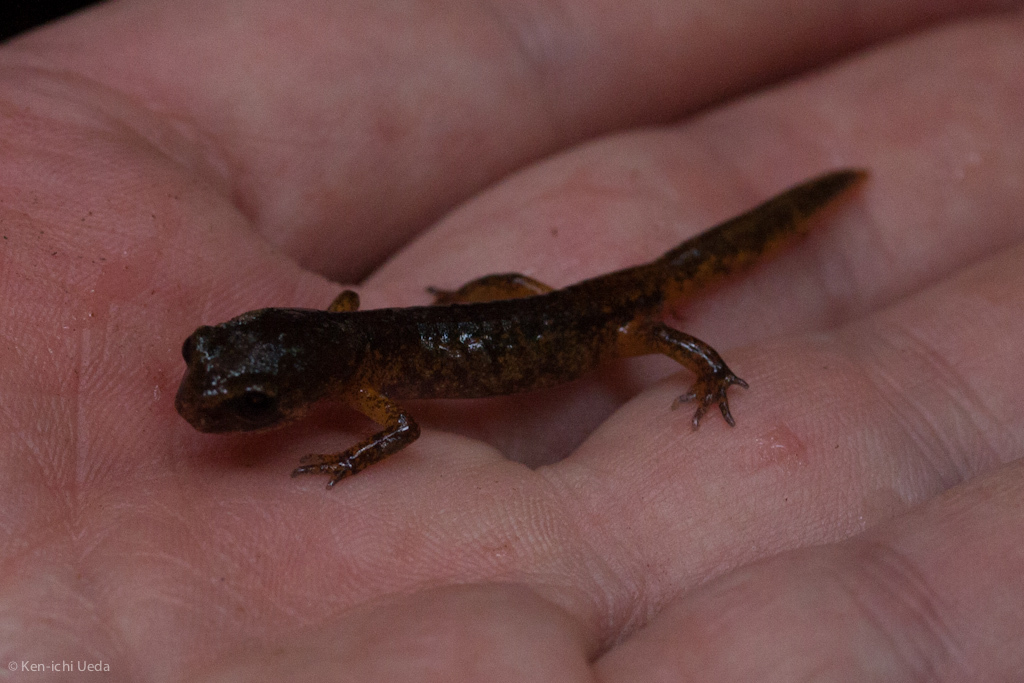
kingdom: Animalia
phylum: Chordata
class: Amphibia
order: Caudata
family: Plethodontidae
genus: Ensatina
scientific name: Ensatina eschscholtzii
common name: Ensatina
